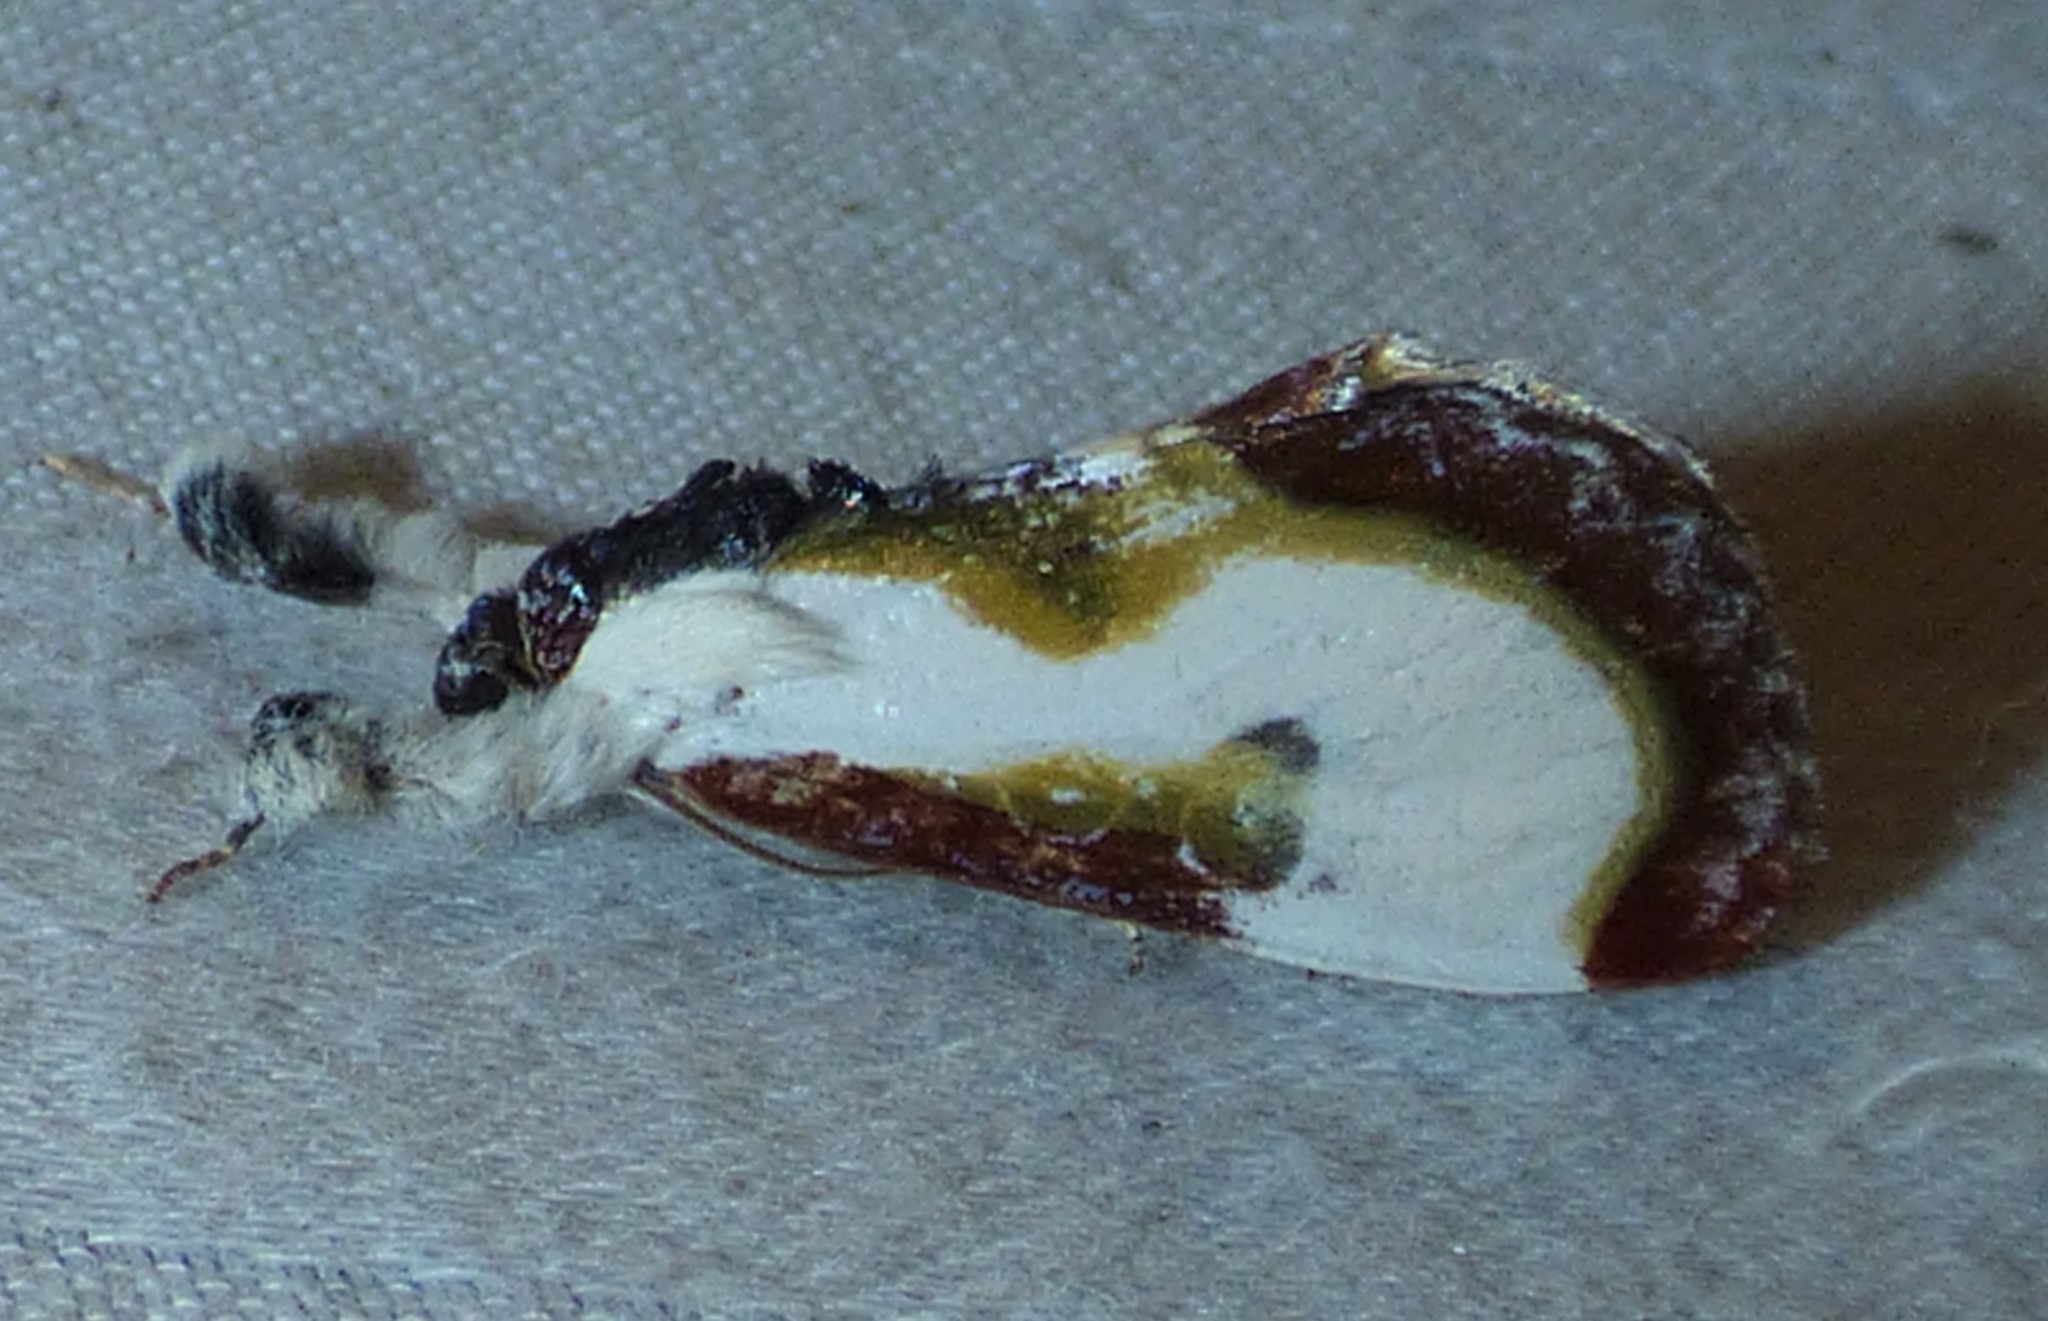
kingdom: Animalia
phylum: Arthropoda
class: Insecta
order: Lepidoptera
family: Noctuidae
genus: Eudryas
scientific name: Eudryas grata
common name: Beautiful wood-nymph
